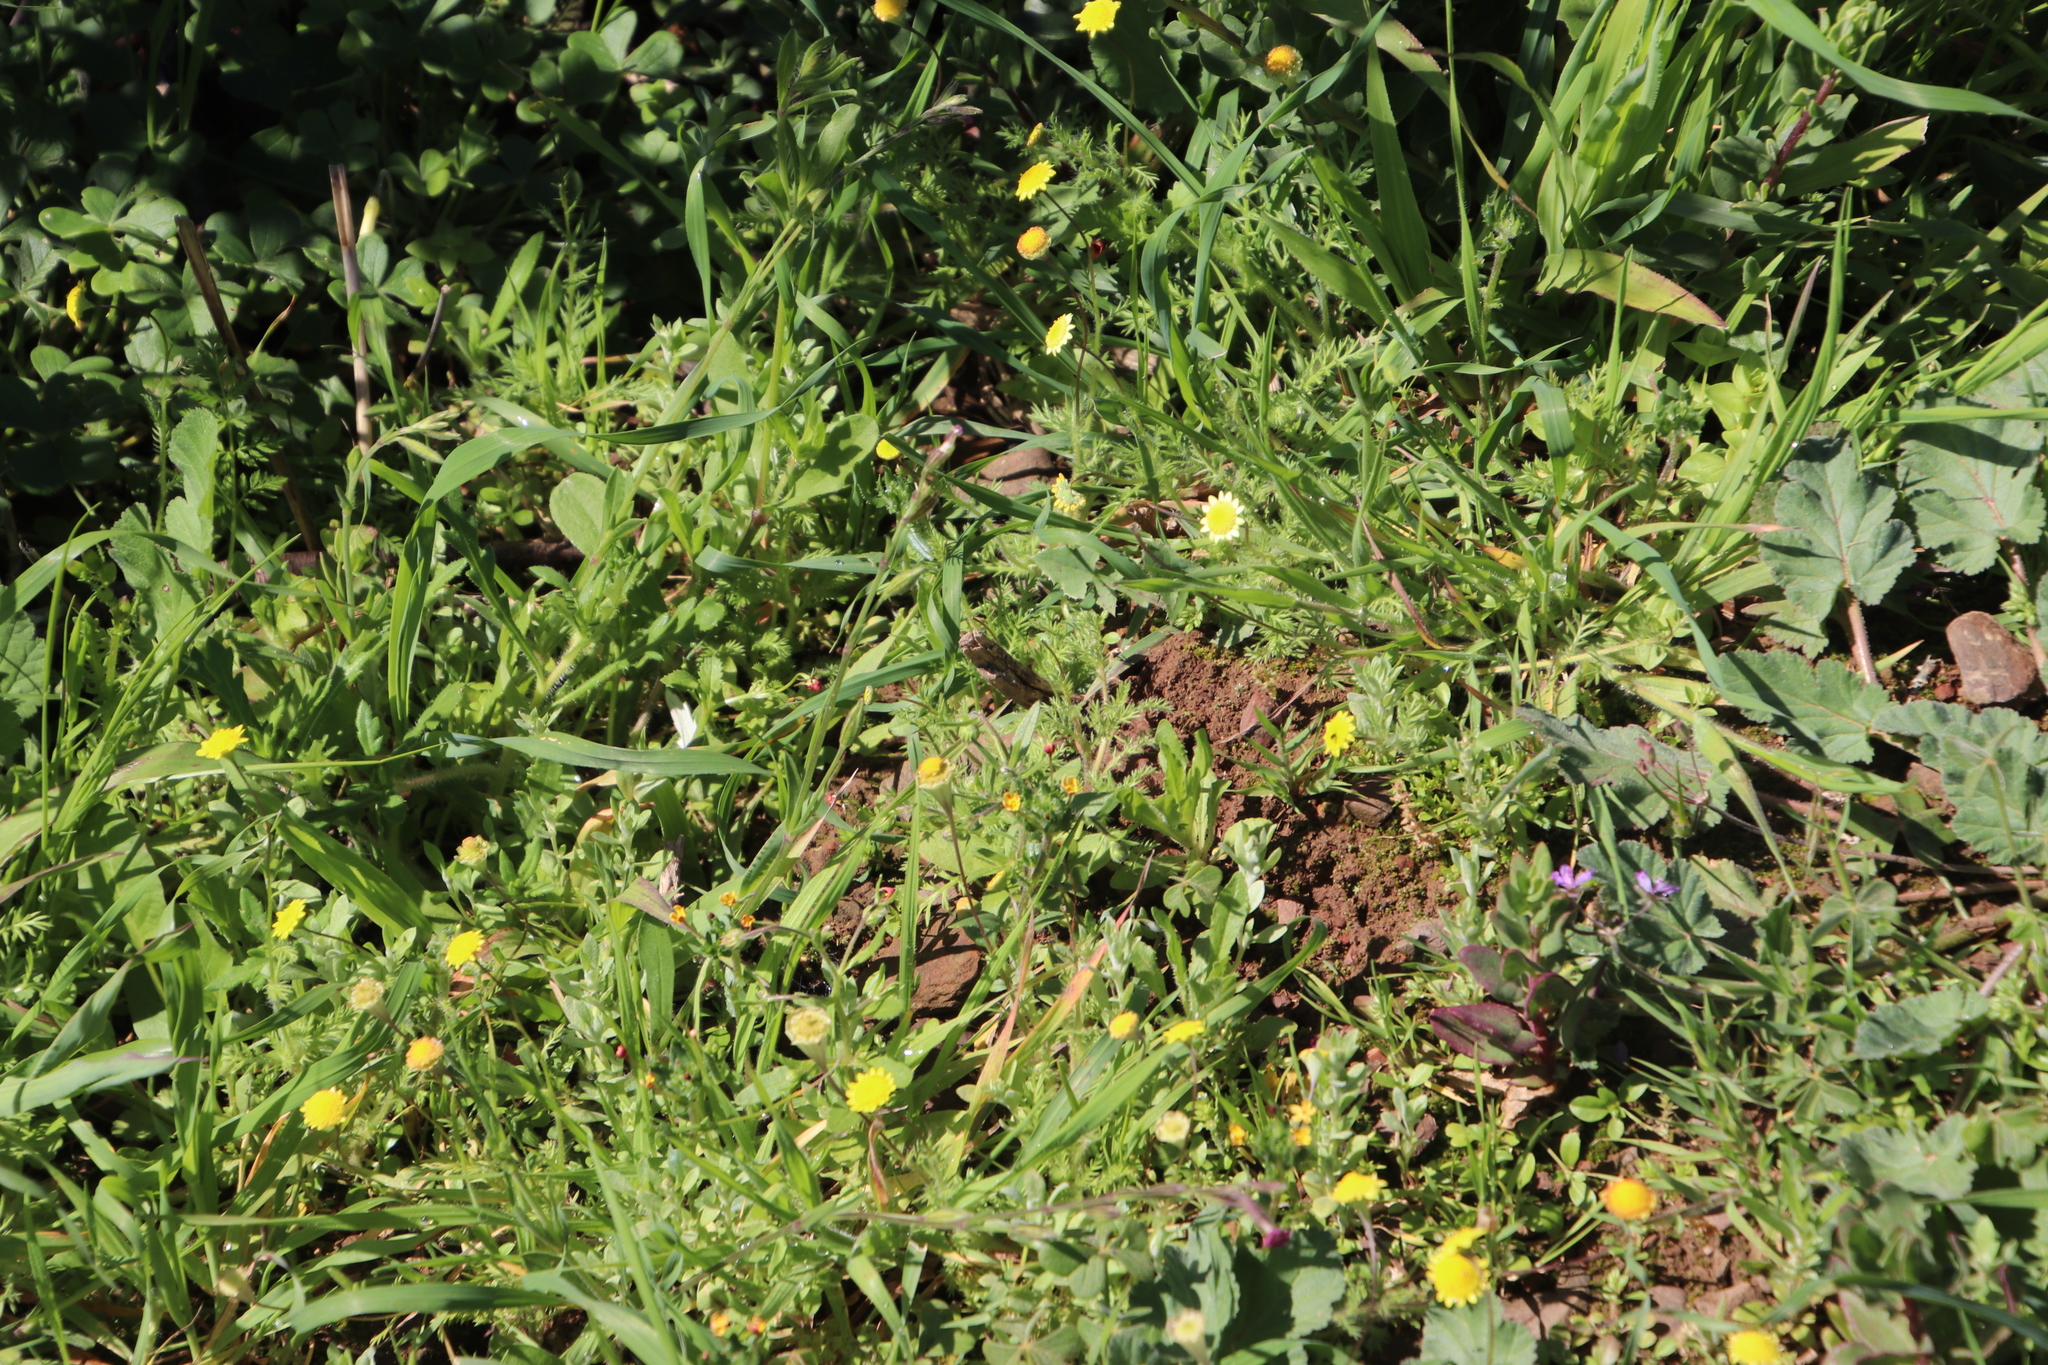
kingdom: Plantae
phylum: Tracheophyta
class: Magnoliopsida
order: Asterales
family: Asteraceae
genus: Cotula
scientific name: Cotula pruinosa
